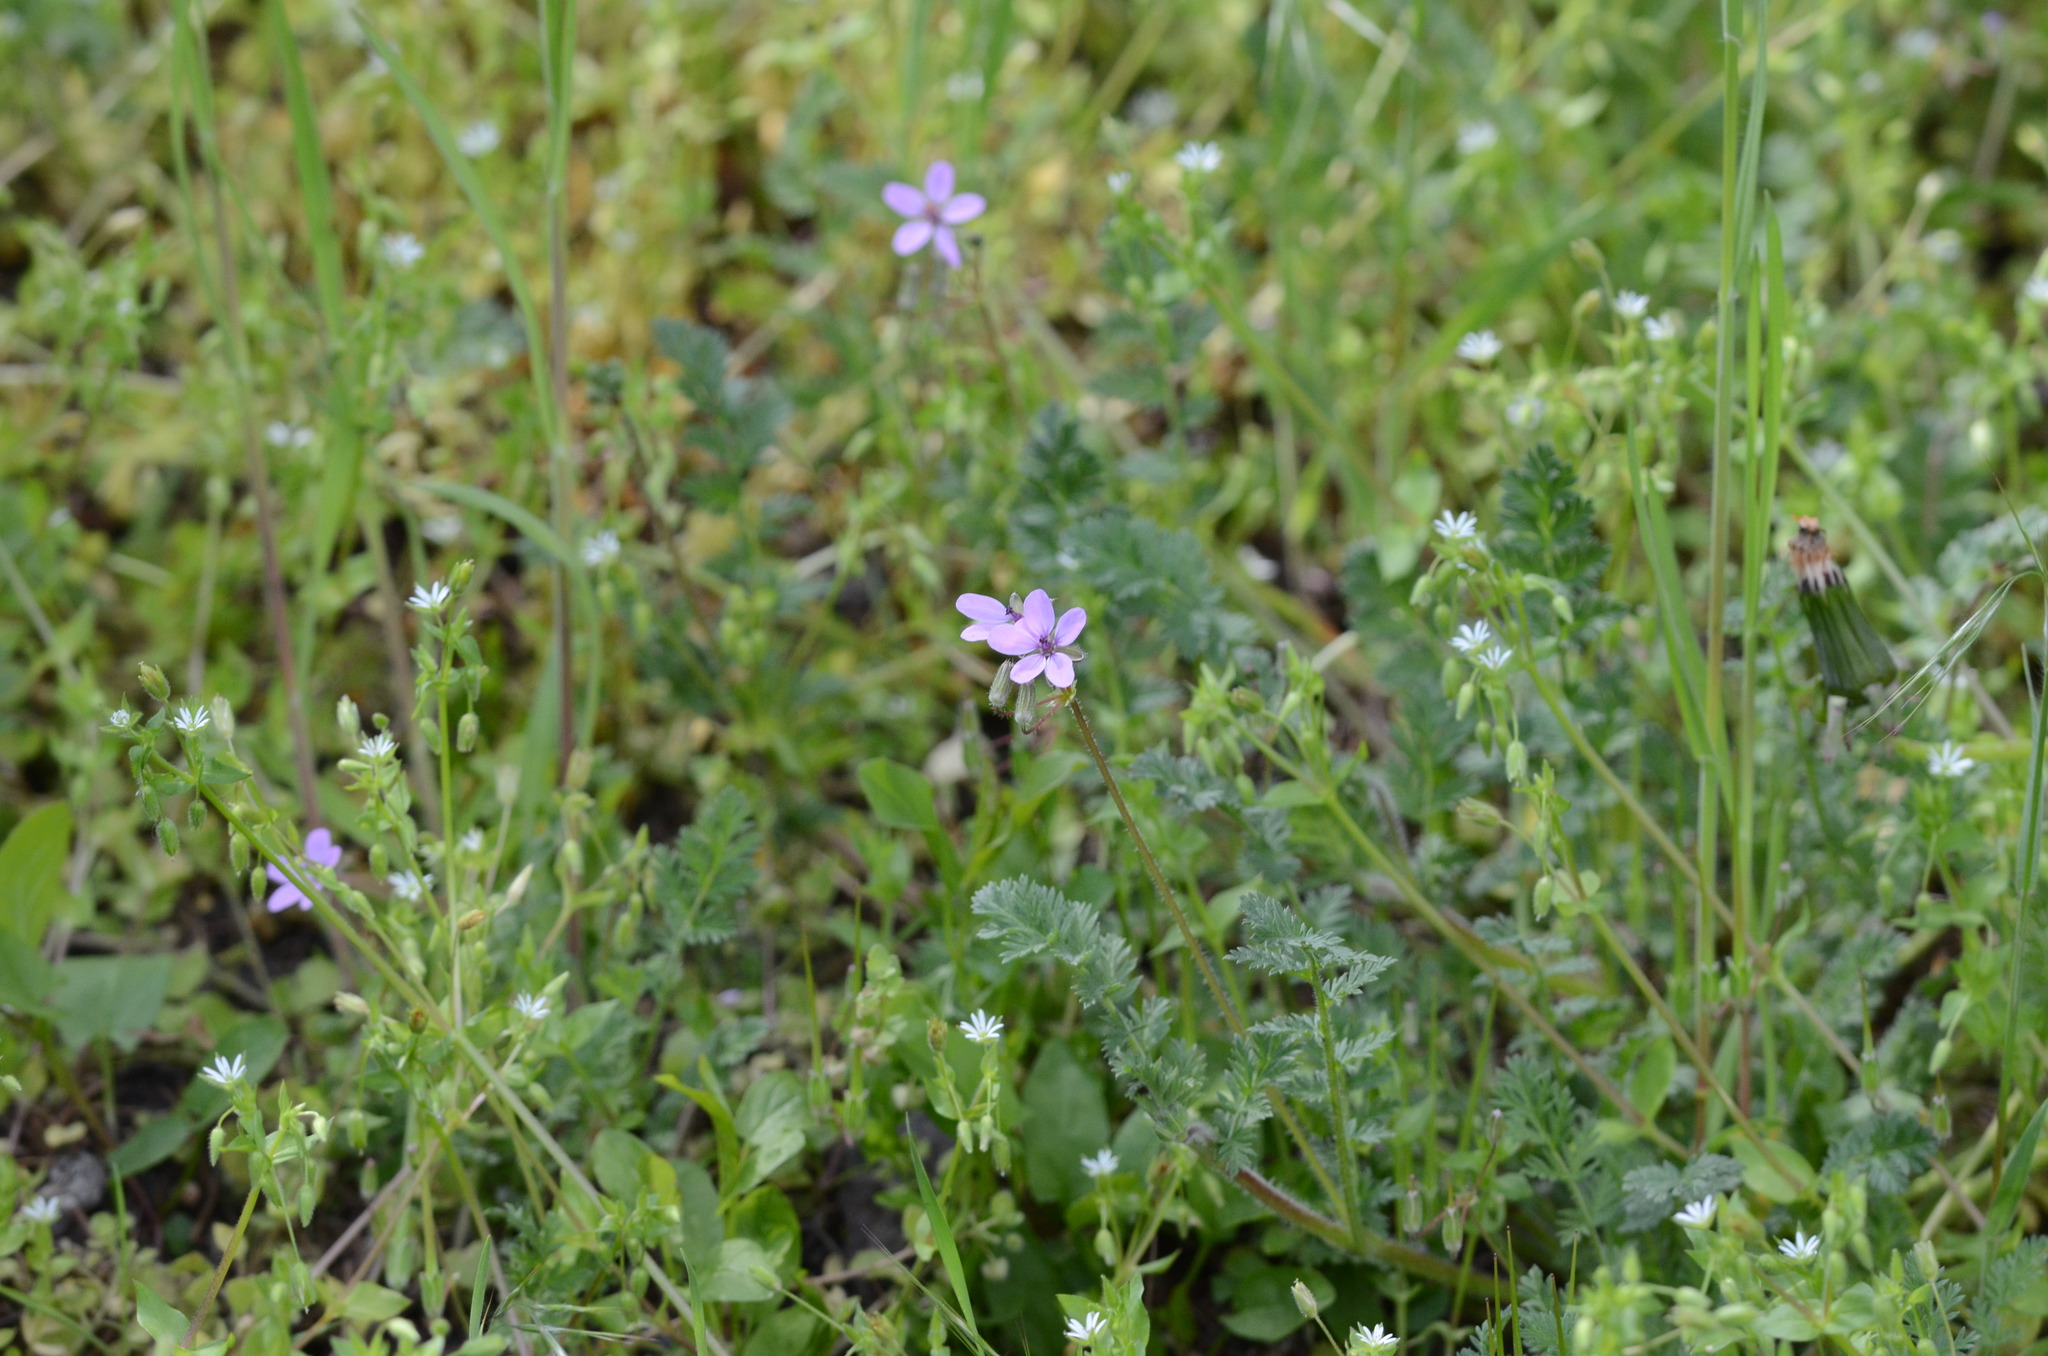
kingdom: Plantae
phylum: Tracheophyta
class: Magnoliopsida
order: Geraniales
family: Geraniaceae
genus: Erodium
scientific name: Erodium cicutarium
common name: Common stork's-bill
